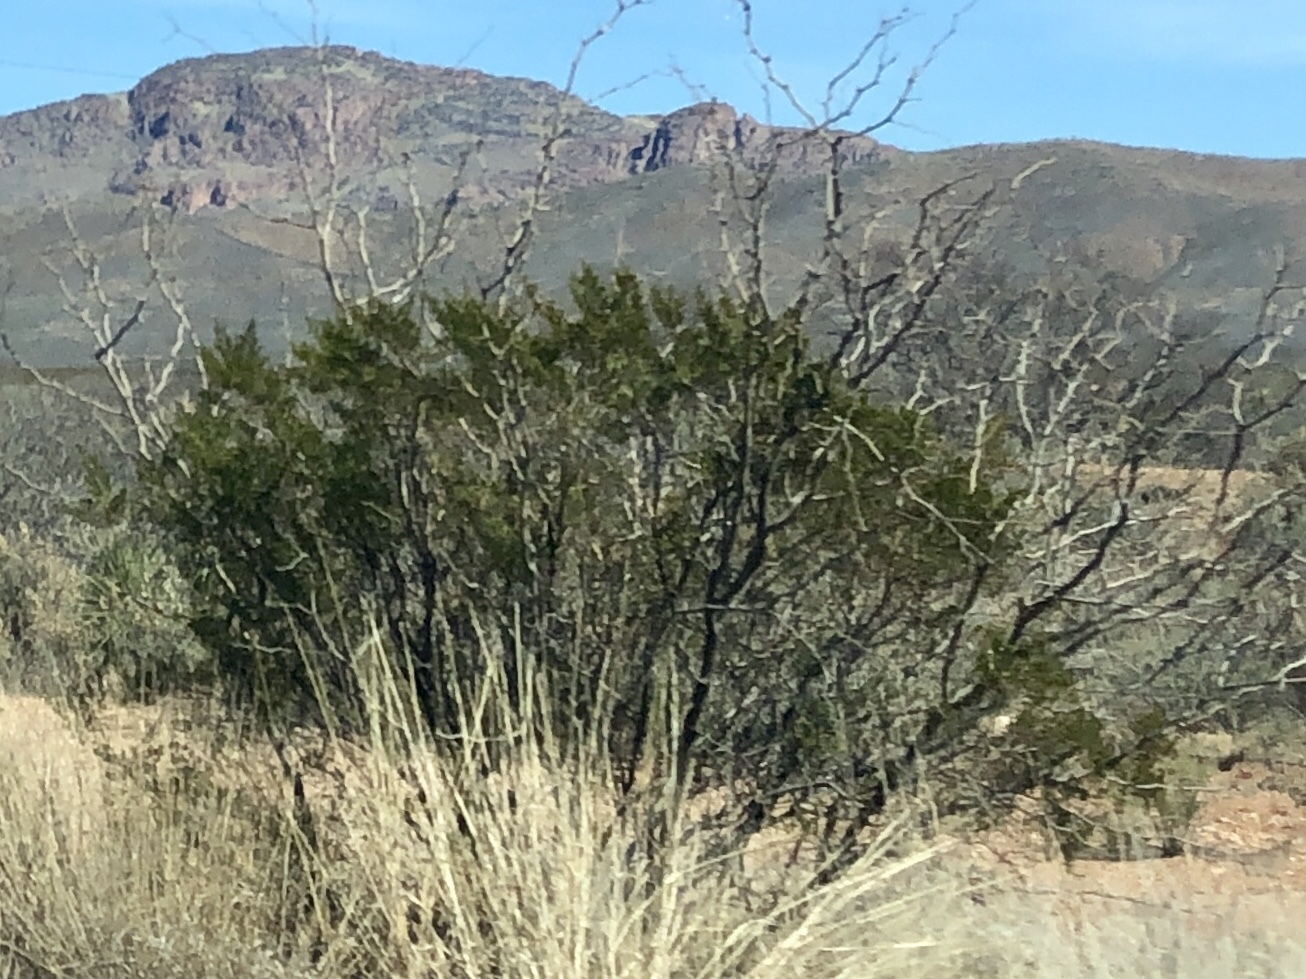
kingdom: Plantae
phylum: Tracheophyta
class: Magnoliopsida
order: Zygophyllales
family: Zygophyllaceae
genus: Larrea
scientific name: Larrea tridentata
